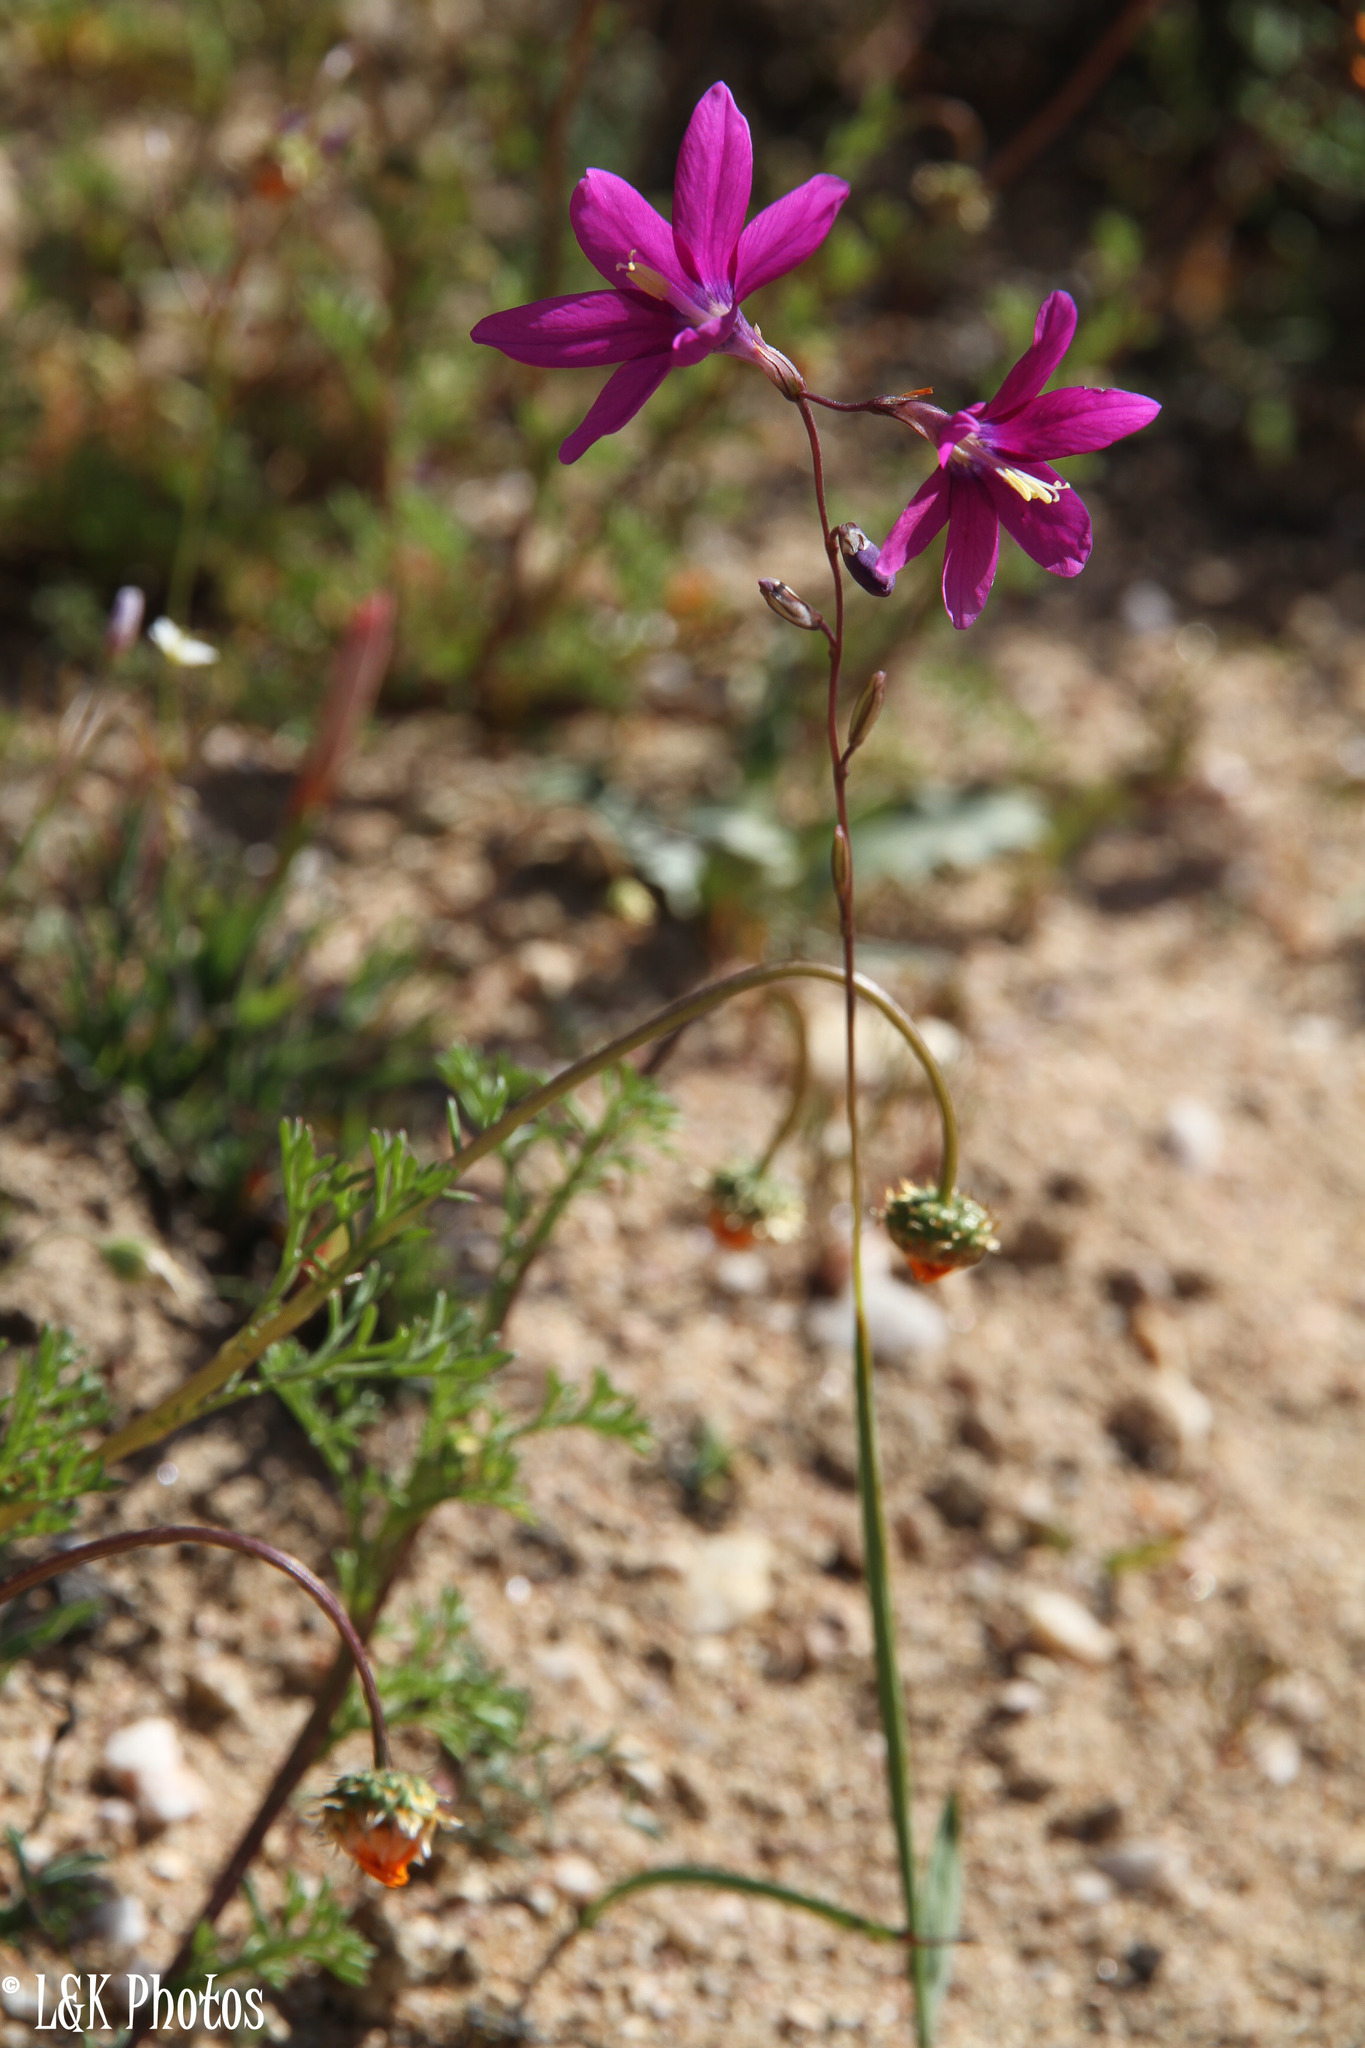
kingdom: Plantae
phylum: Tracheophyta
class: Liliopsida
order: Asparagales
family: Iridaceae
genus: Ixia
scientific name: Ixia ramulosa
